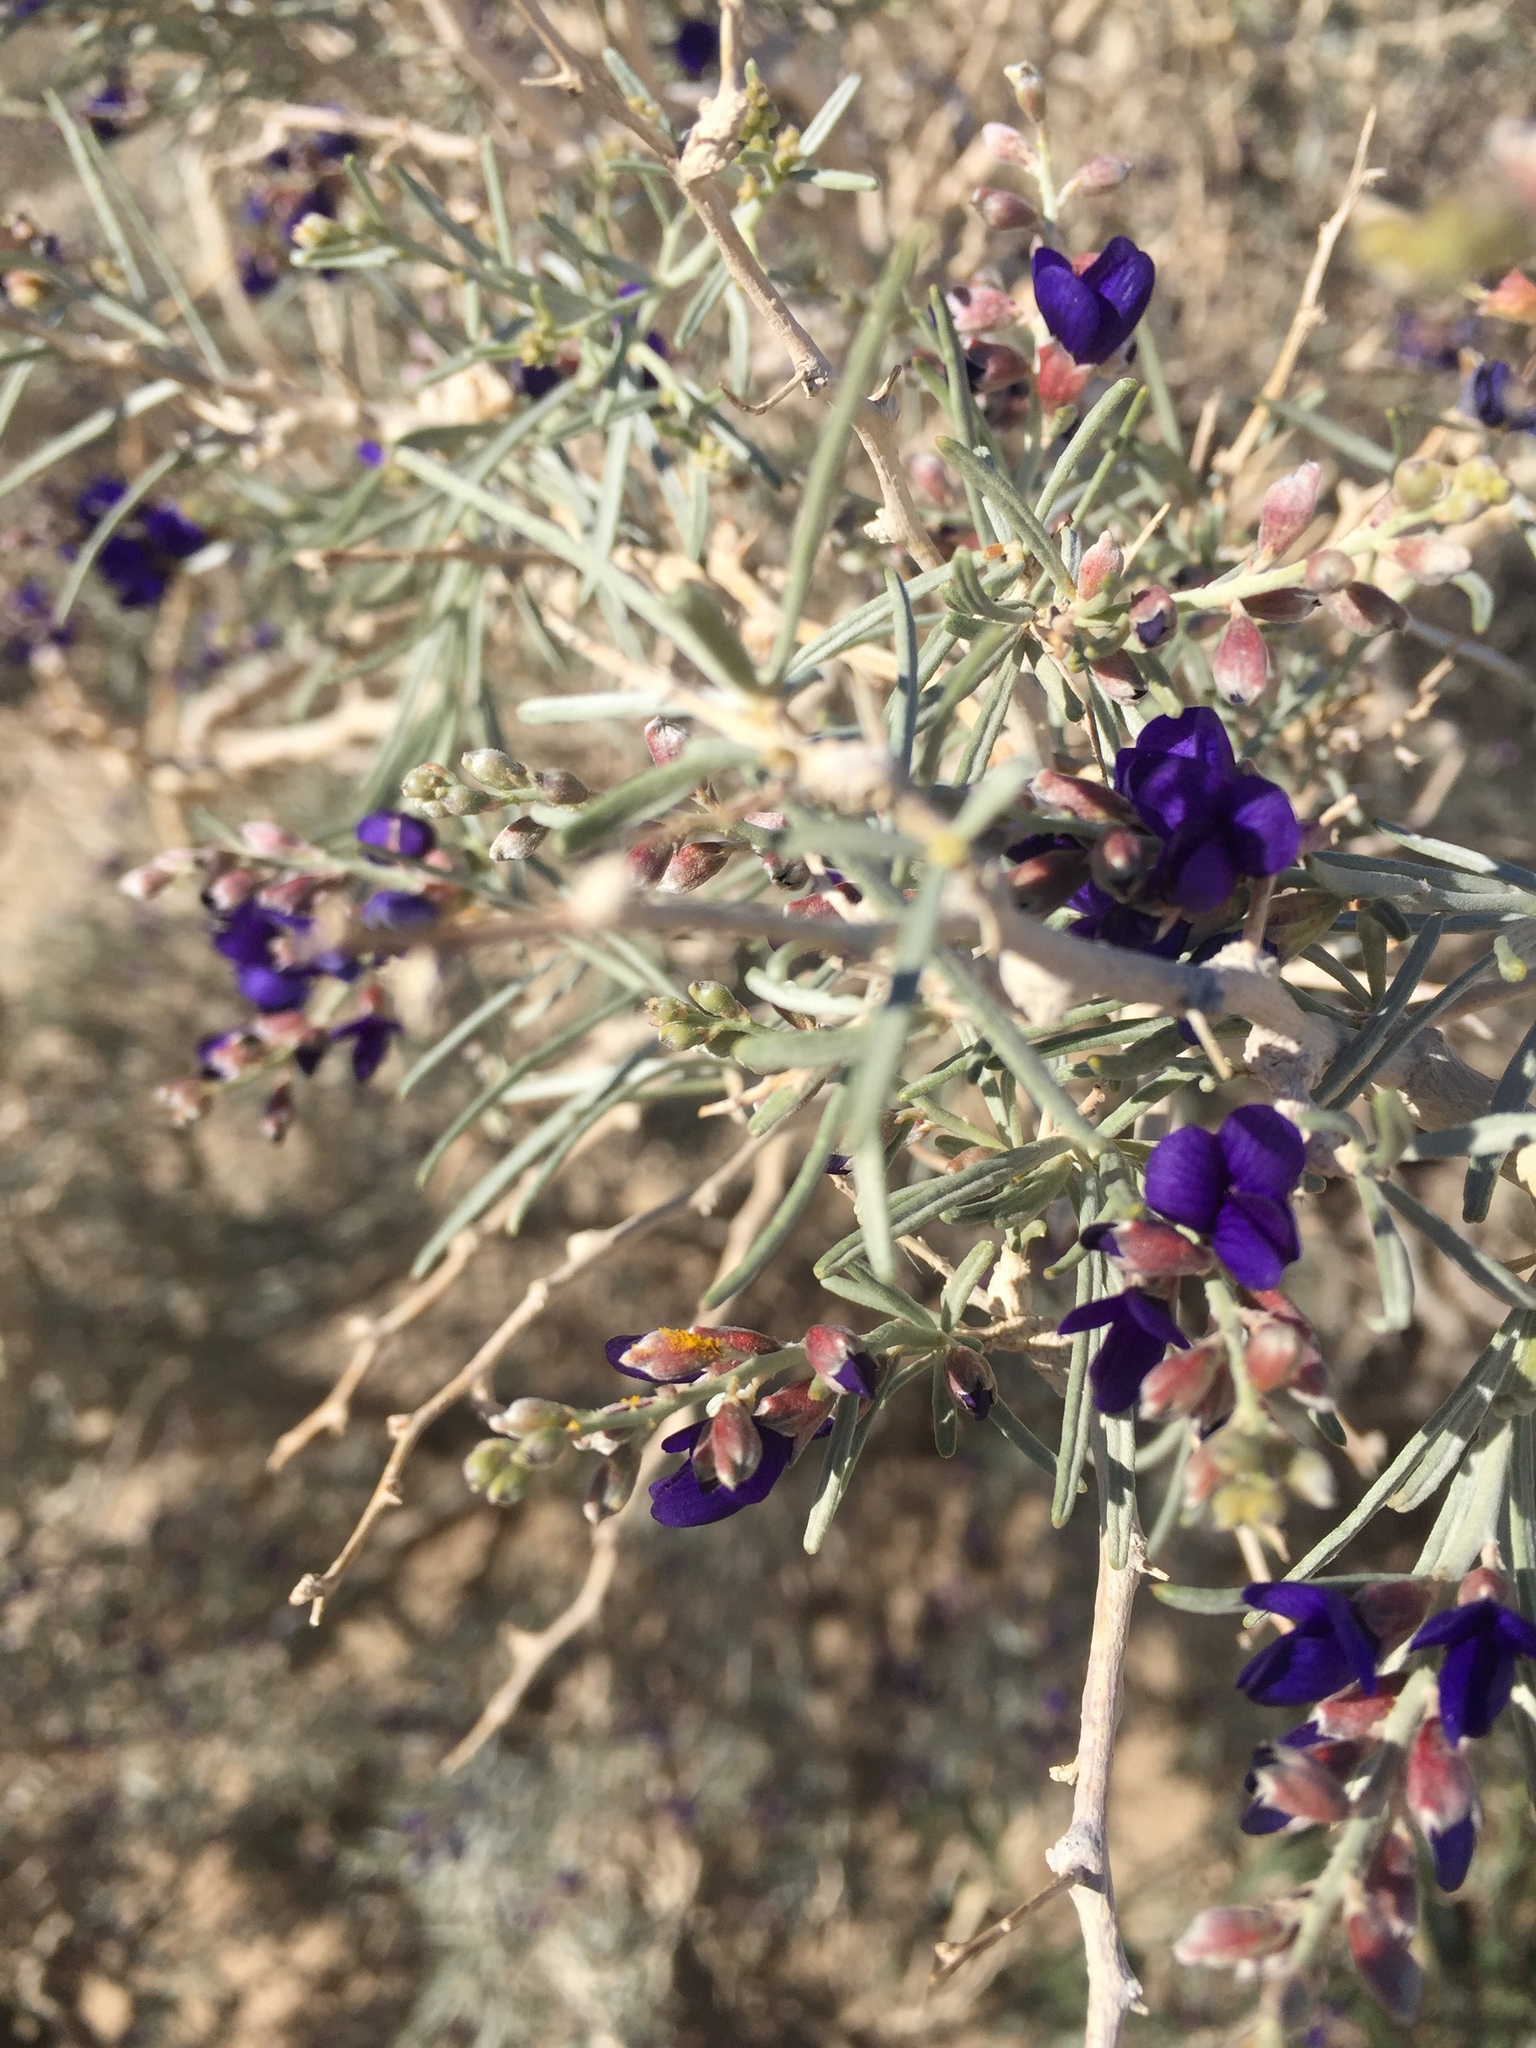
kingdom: Plantae
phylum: Tracheophyta
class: Magnoliopsida
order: Fabales
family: Fabaceae
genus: Psorothamnus
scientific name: Psorothamnus schottii
